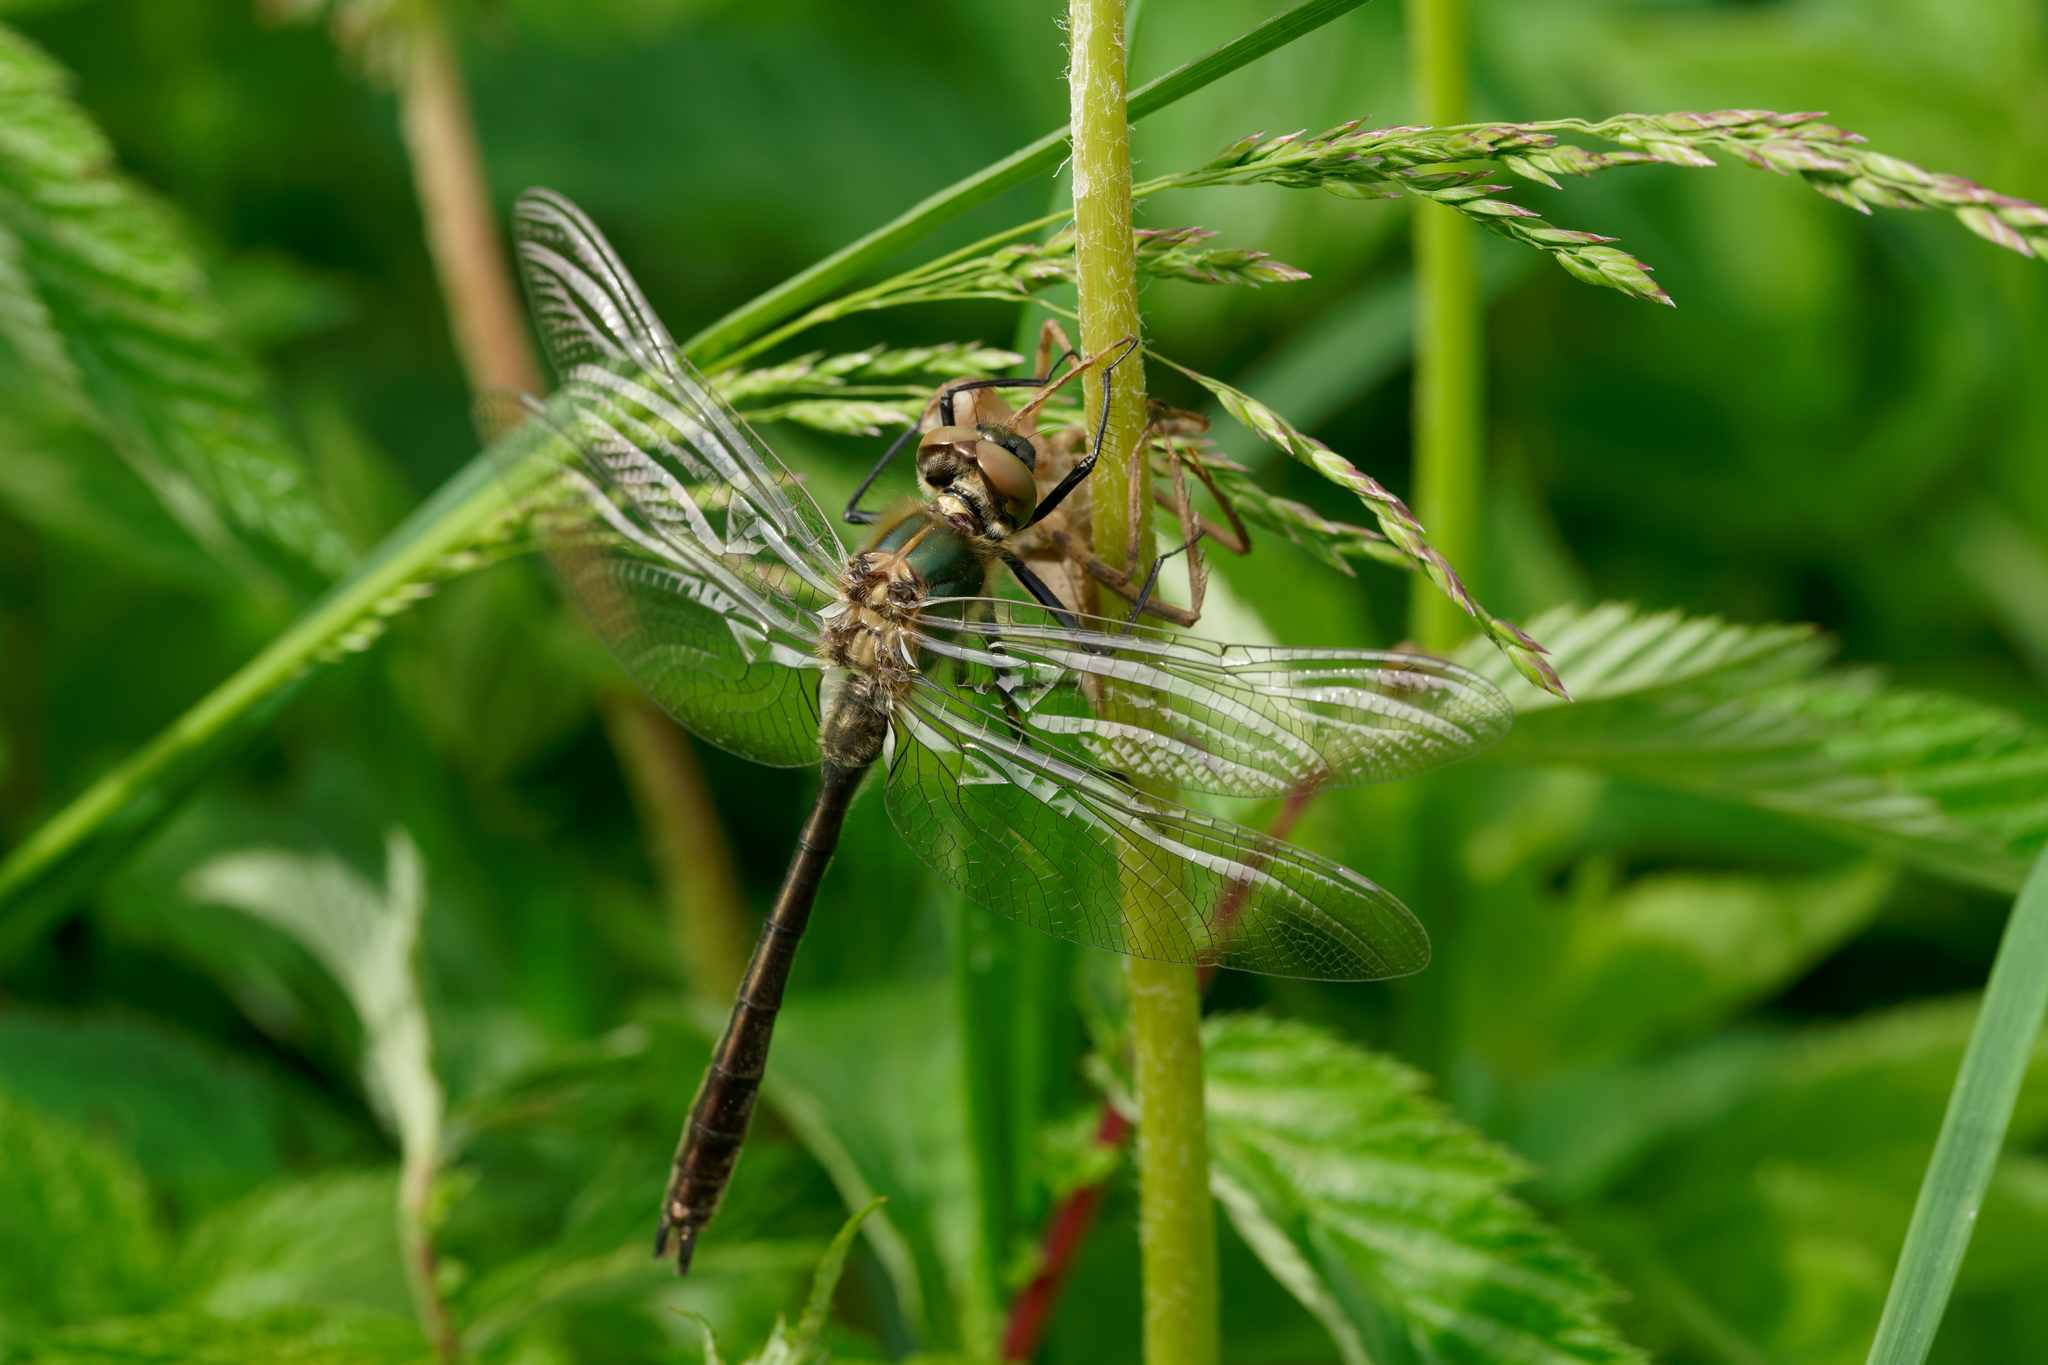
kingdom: Animalia
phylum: Arthropoda
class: Insecta
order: Odonata
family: Corduliidae
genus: Cordulia
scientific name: Cordulia aenea
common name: Downy emerald
